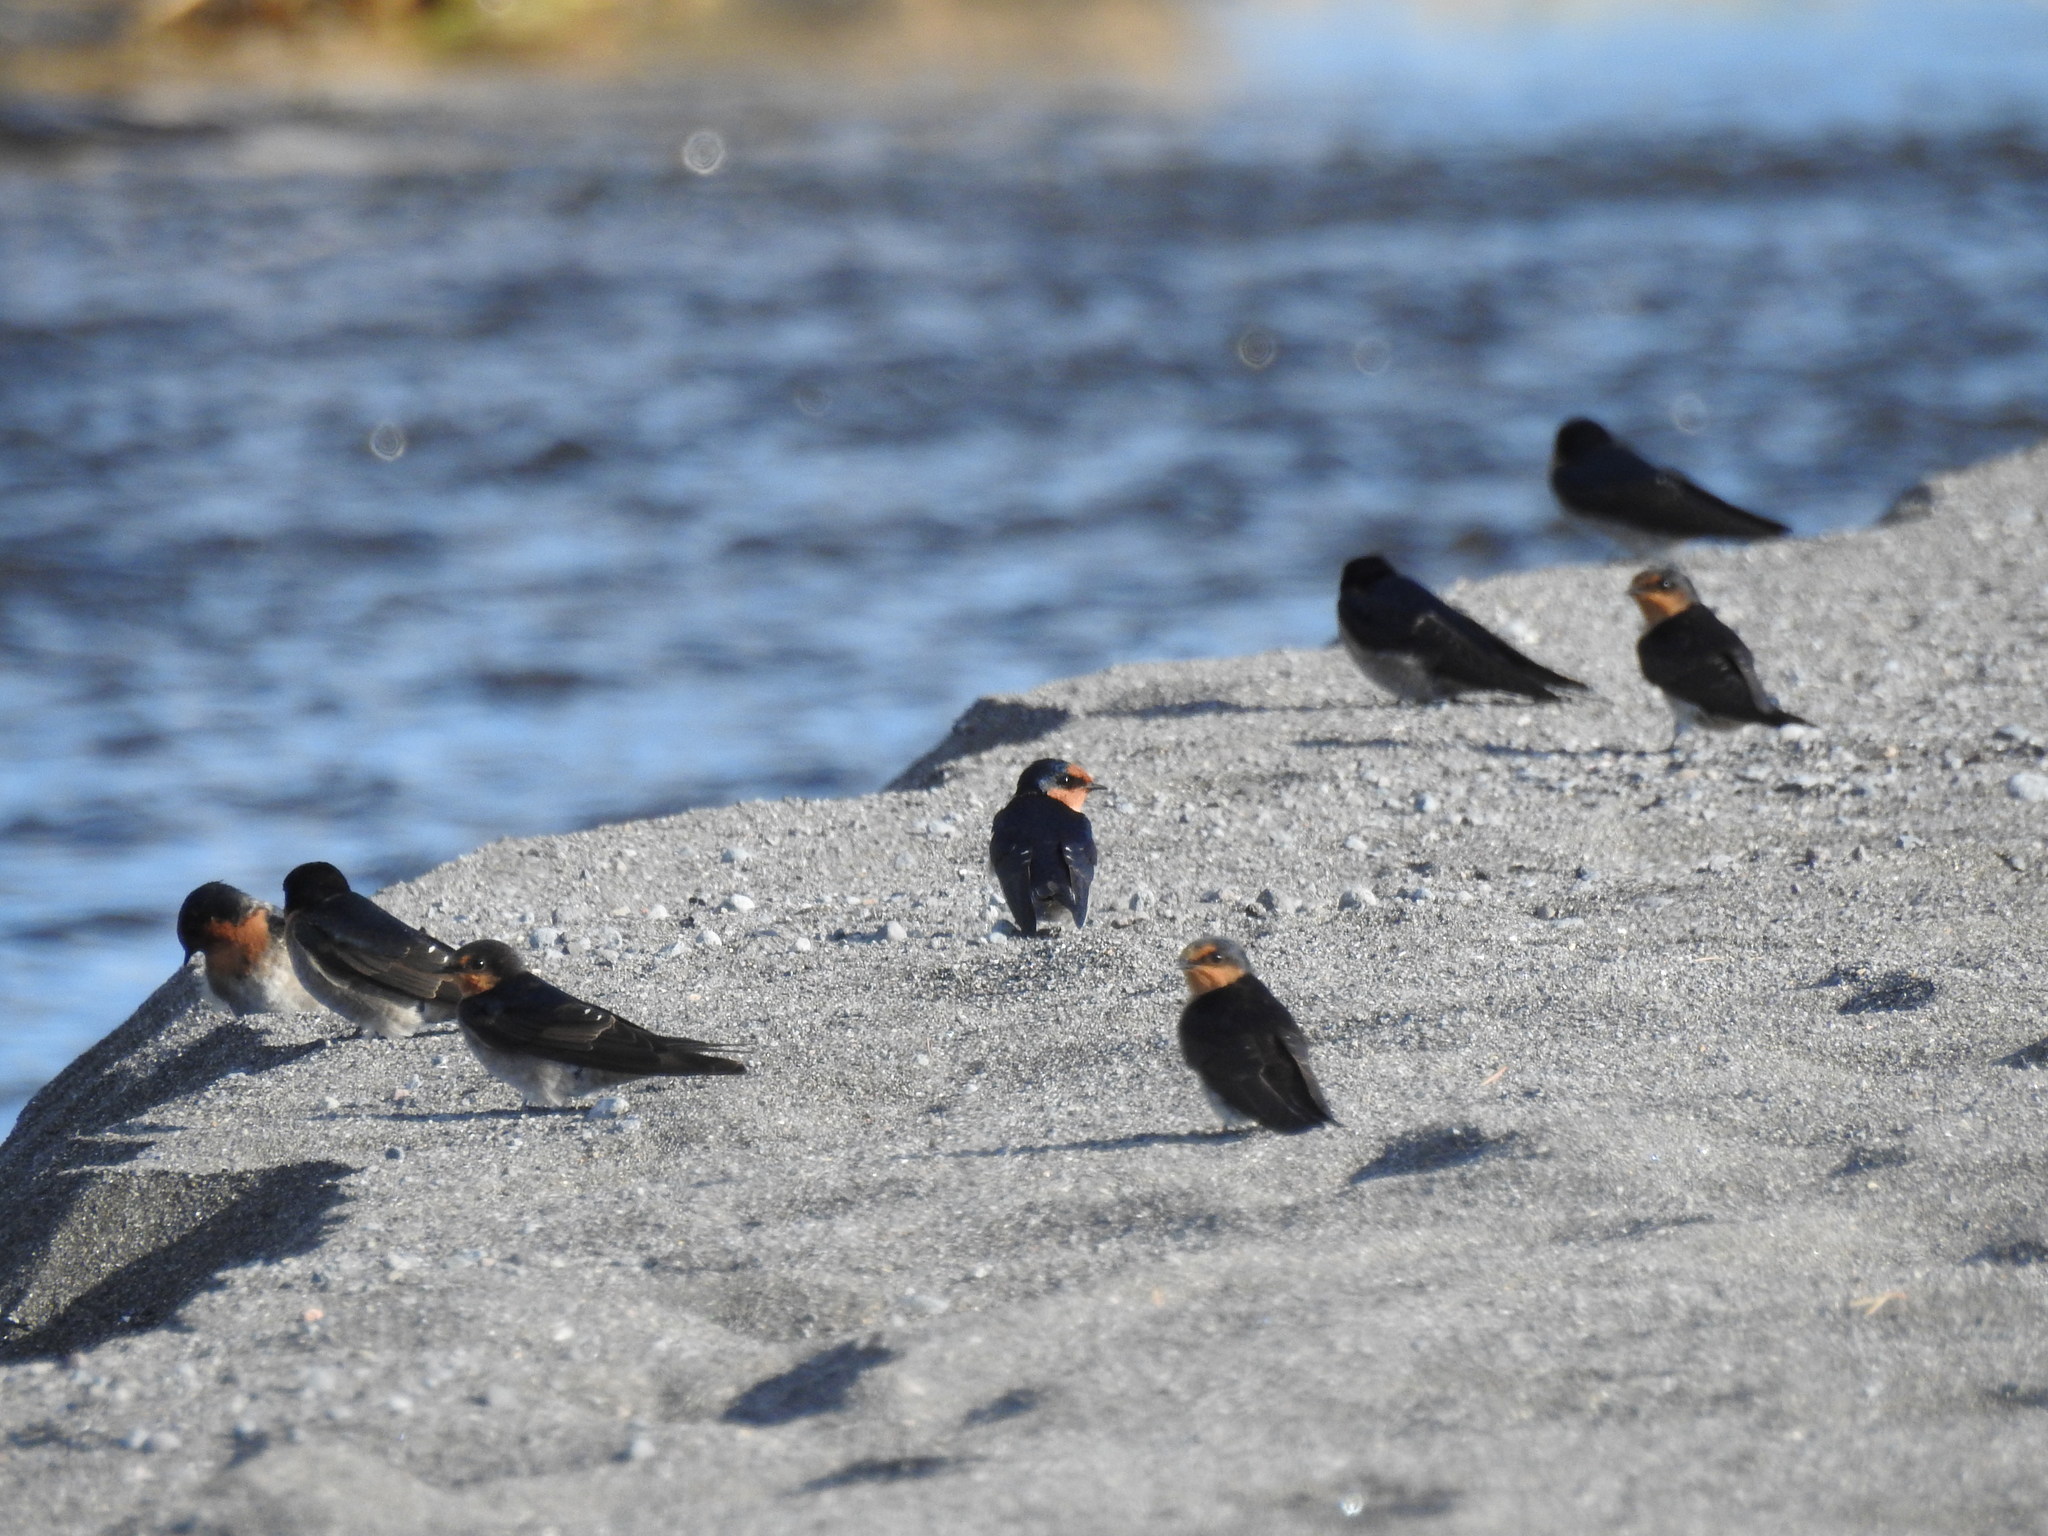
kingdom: Animalia
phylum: Chordata
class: Aves
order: Passeriformes
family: Hirundinidae
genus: Hirundo
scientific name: Hirundo neoxena
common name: Welcome swallow
